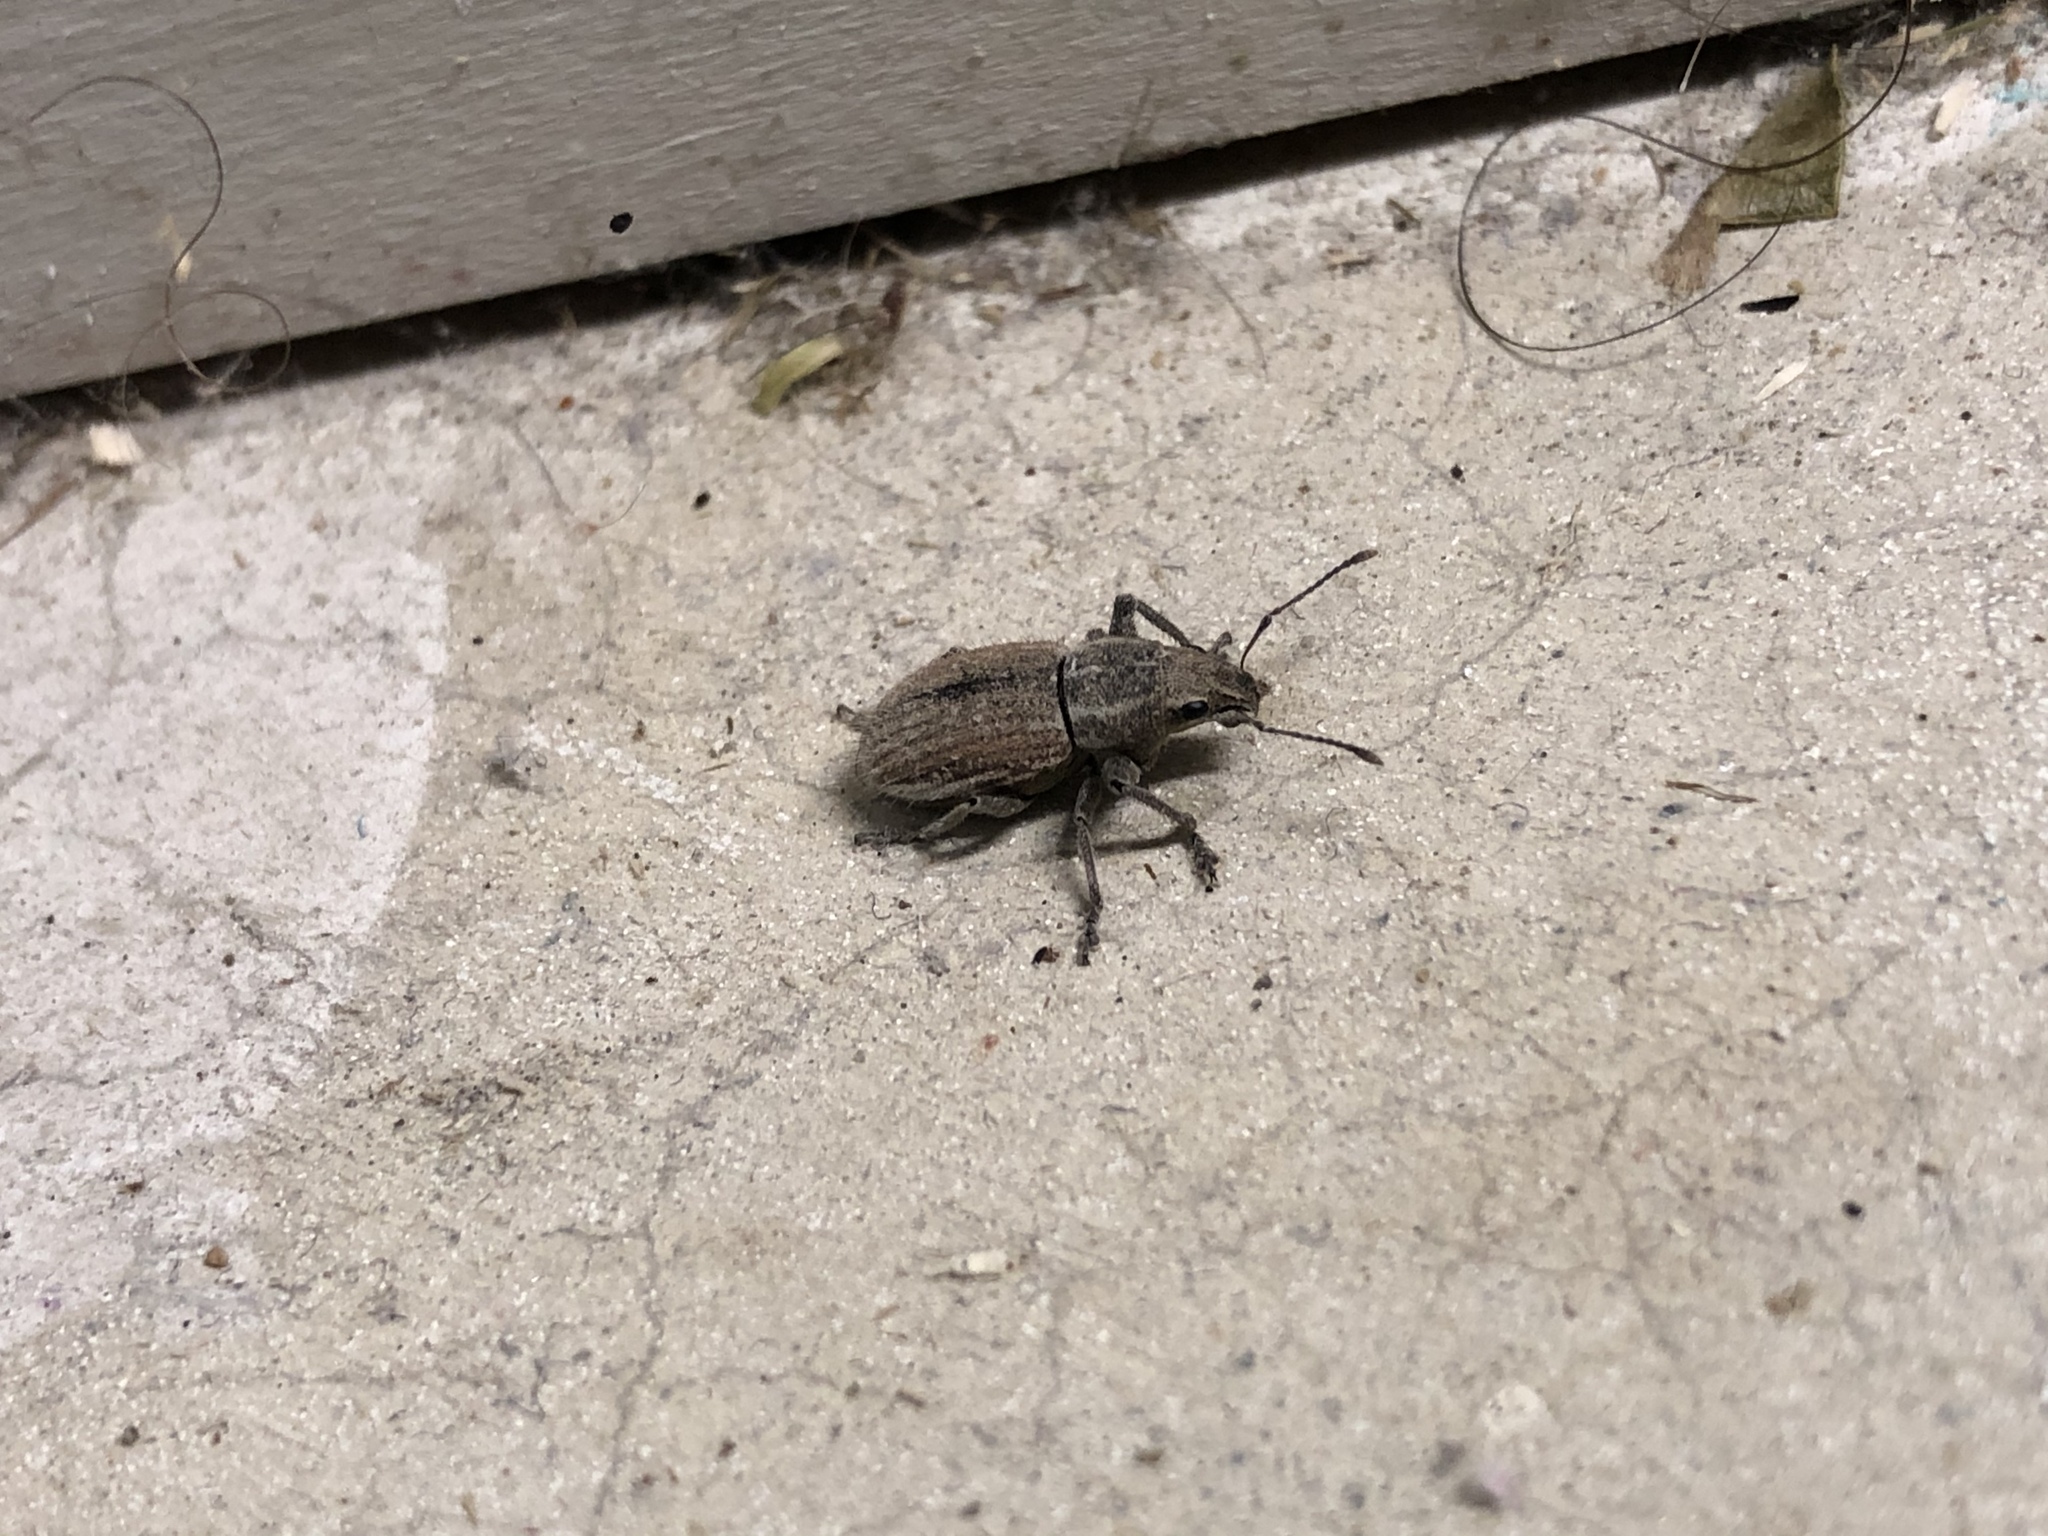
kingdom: Animalia
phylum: Arthropoda
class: Insecta
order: Coleoptera
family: Curculionidae
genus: Naupactus
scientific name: Naupactus leucoloma
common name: Whitefringed beetle
